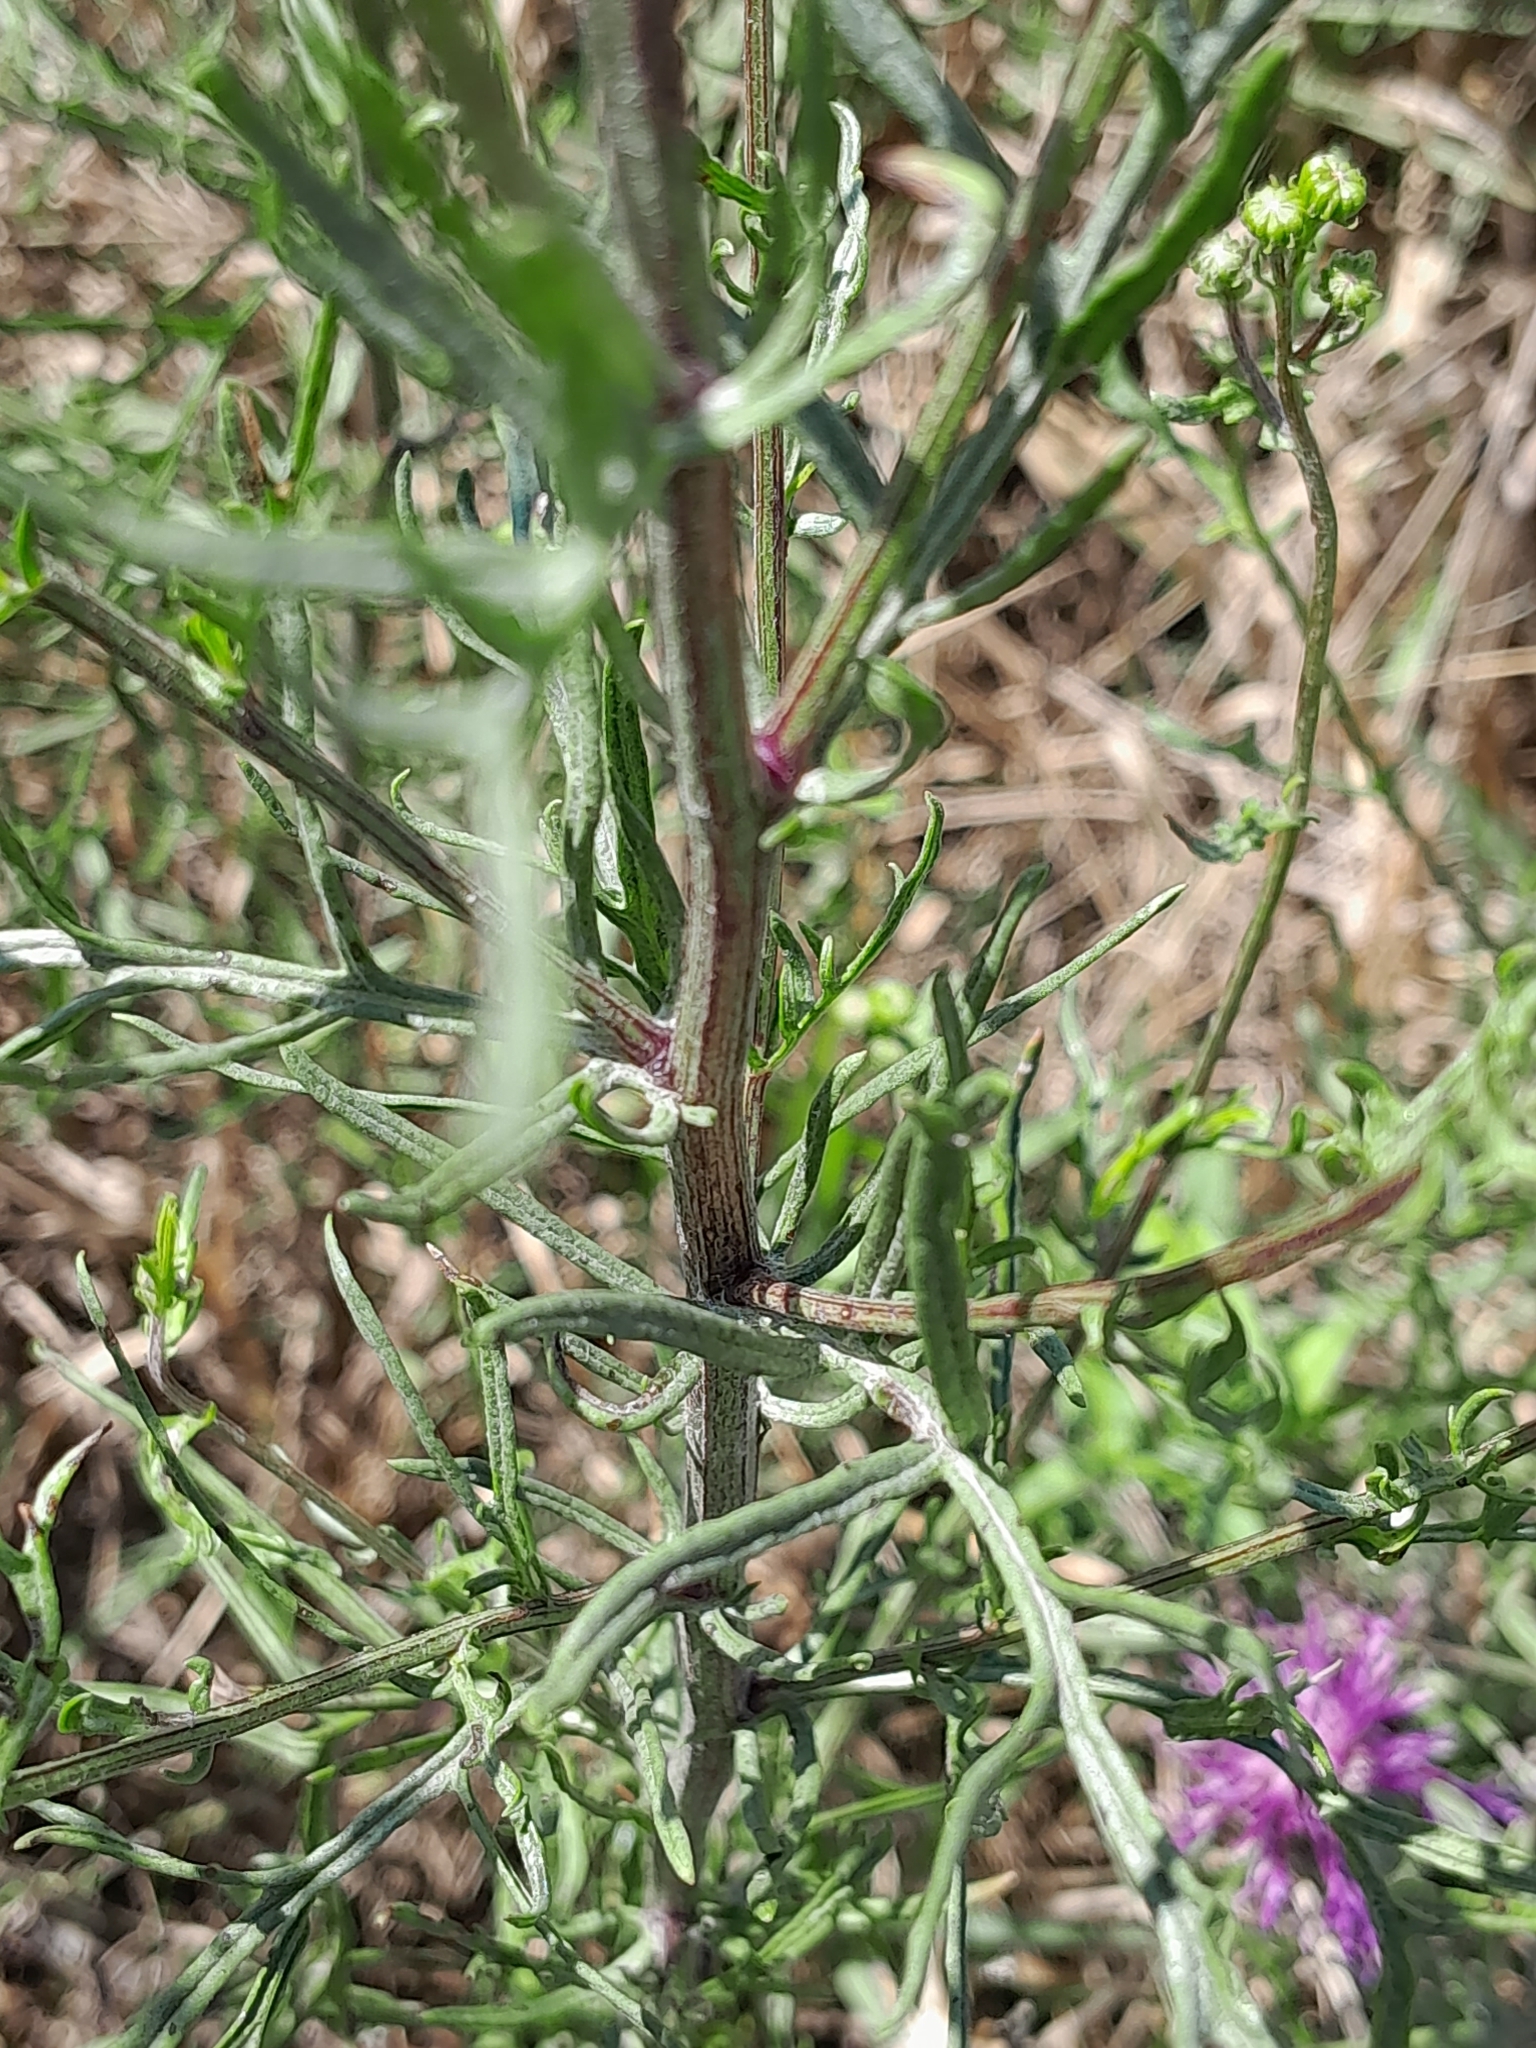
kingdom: Plantae
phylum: Tracheophyta
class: Magnoliopsida
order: Asterales
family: Asteraceae
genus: Jacobaea
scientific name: Jacobaea erucifolia
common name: Hoary ragwort
